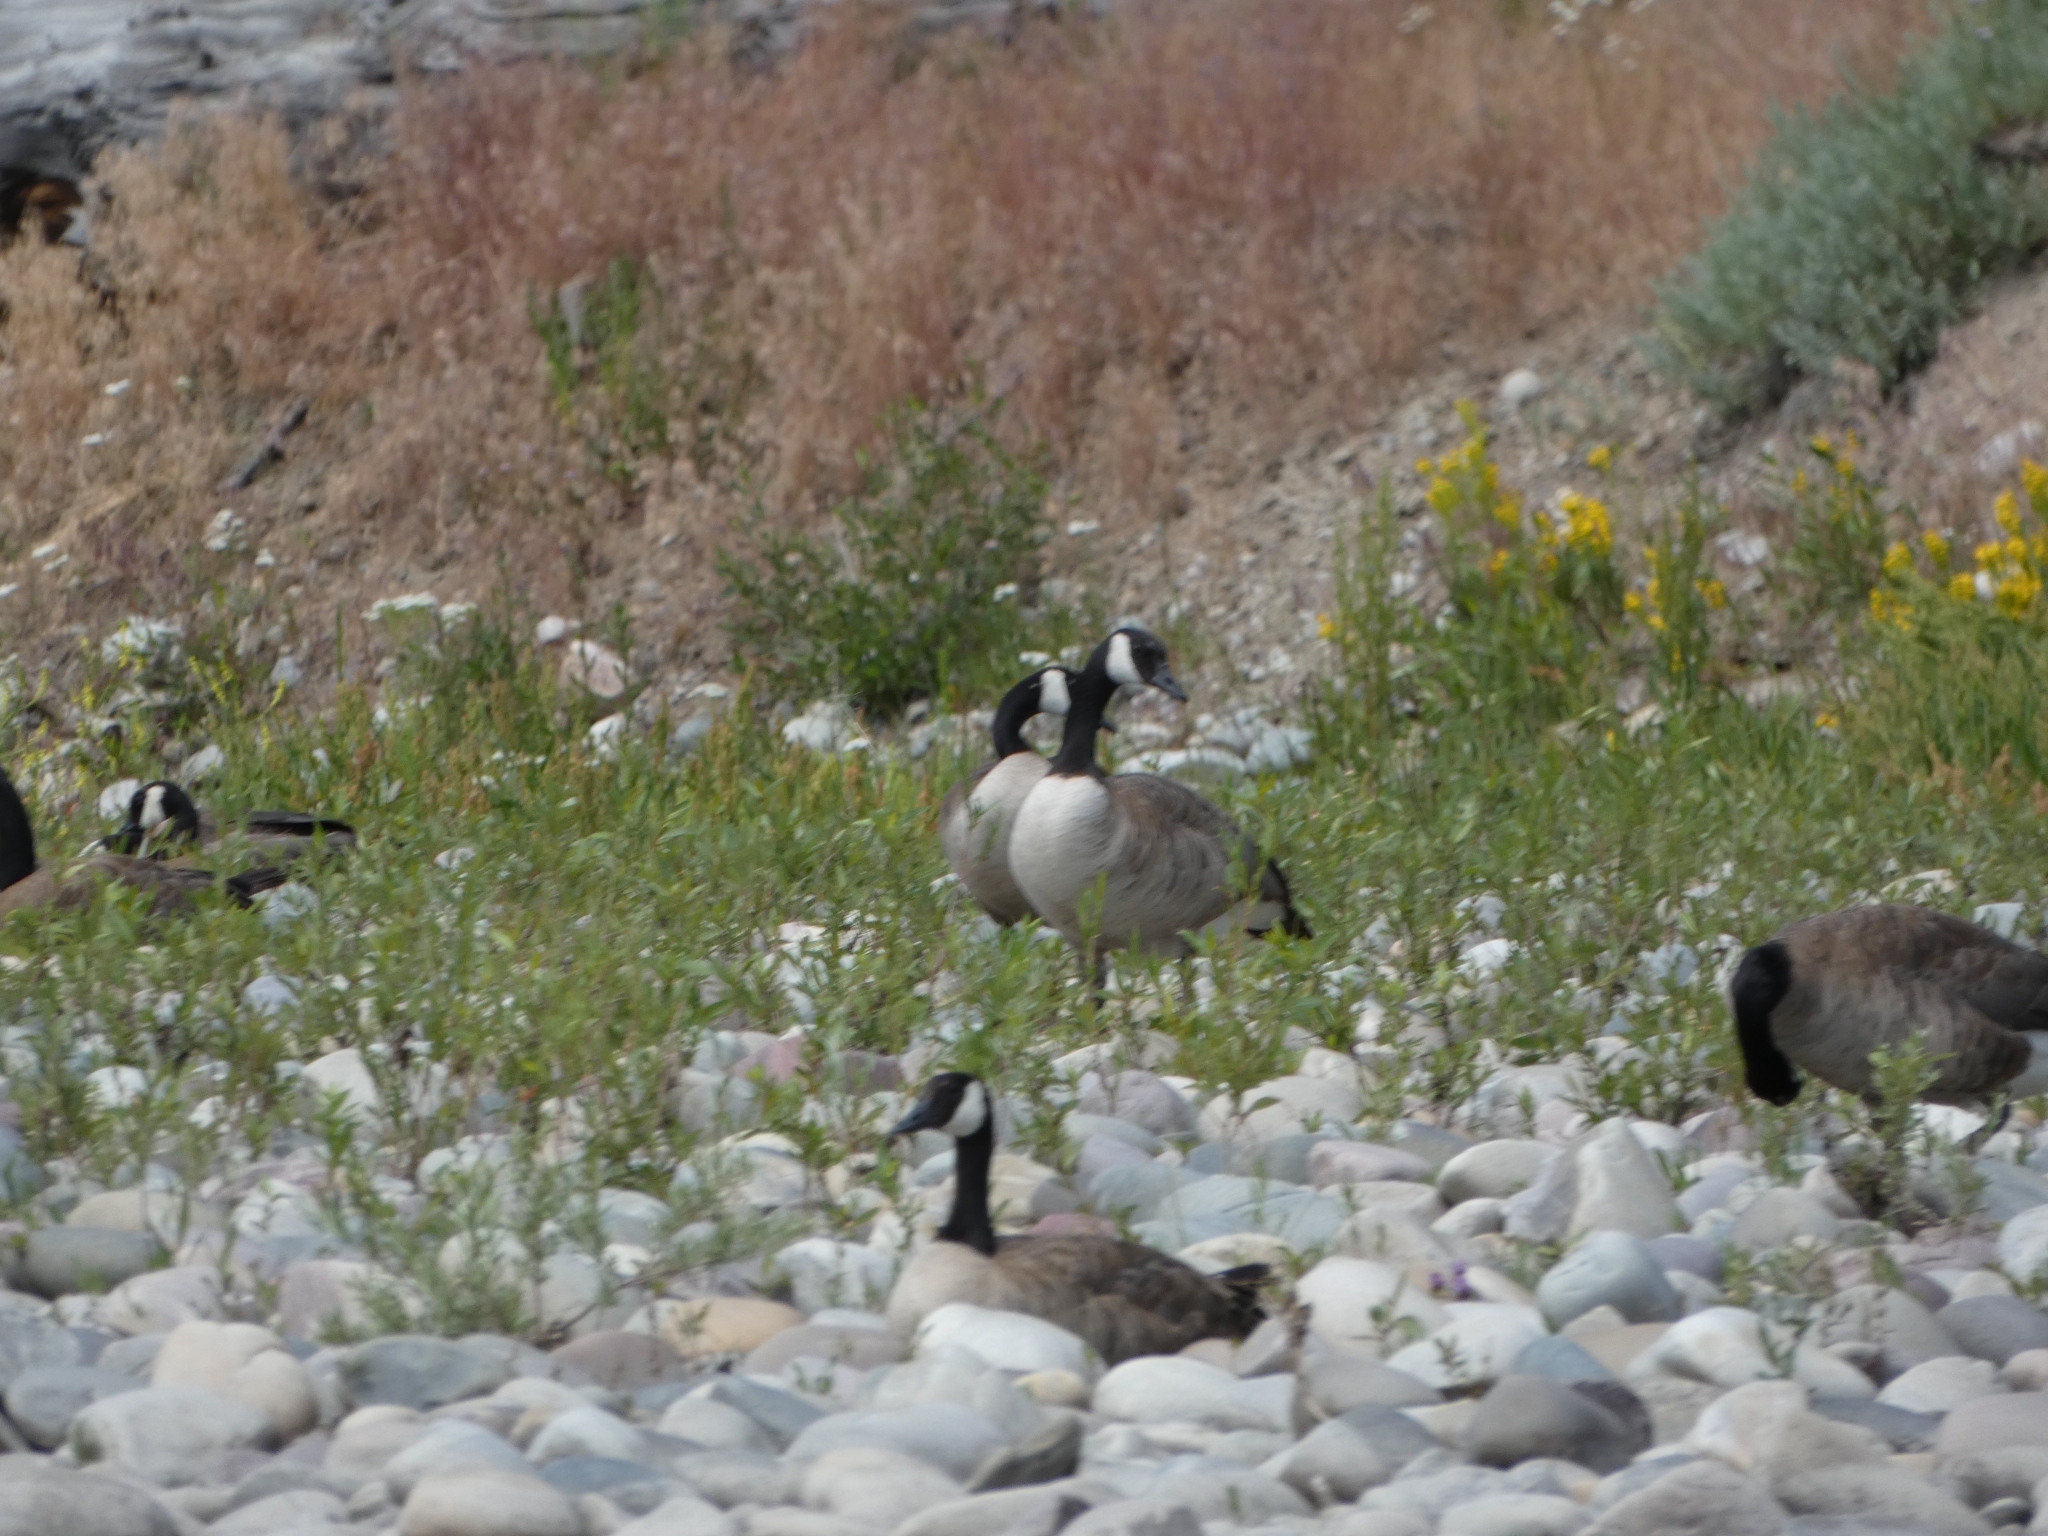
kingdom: Animalia
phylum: Chordata
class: Aves
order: Anseriformes
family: Anatidae
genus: Branta
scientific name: Branta canadensis
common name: Canada goose
